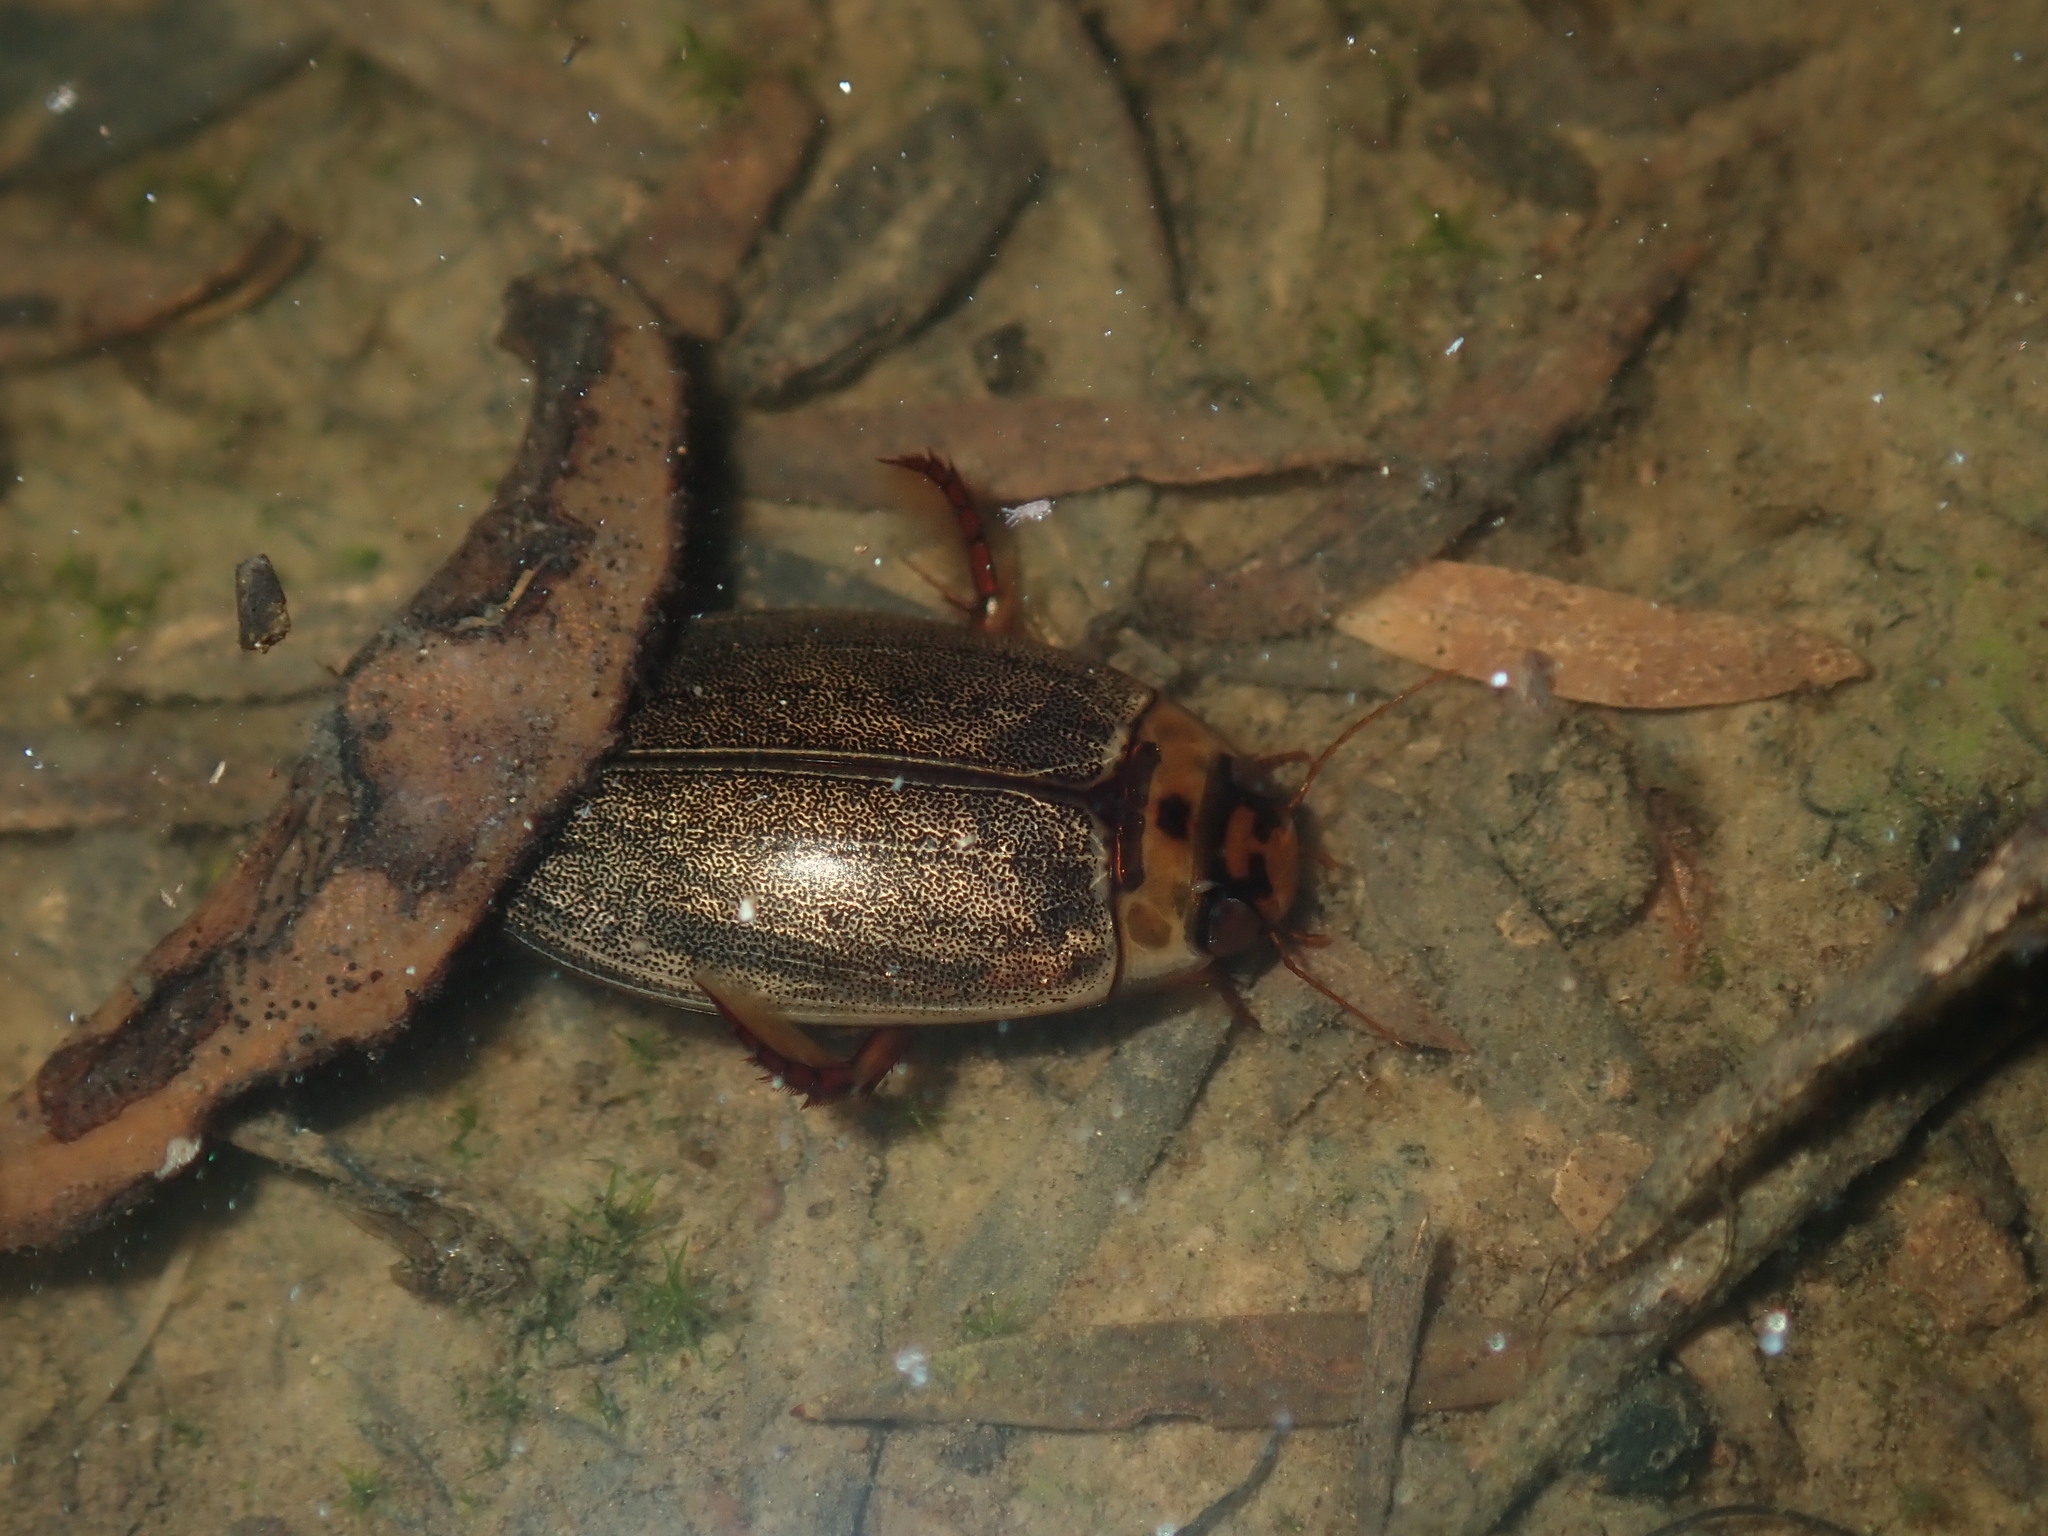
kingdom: Animalia
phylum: Arthropoda
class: Insecta
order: Coleoptera
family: Dytiscidae
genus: Rhantus
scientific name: Rhantus suturalis
